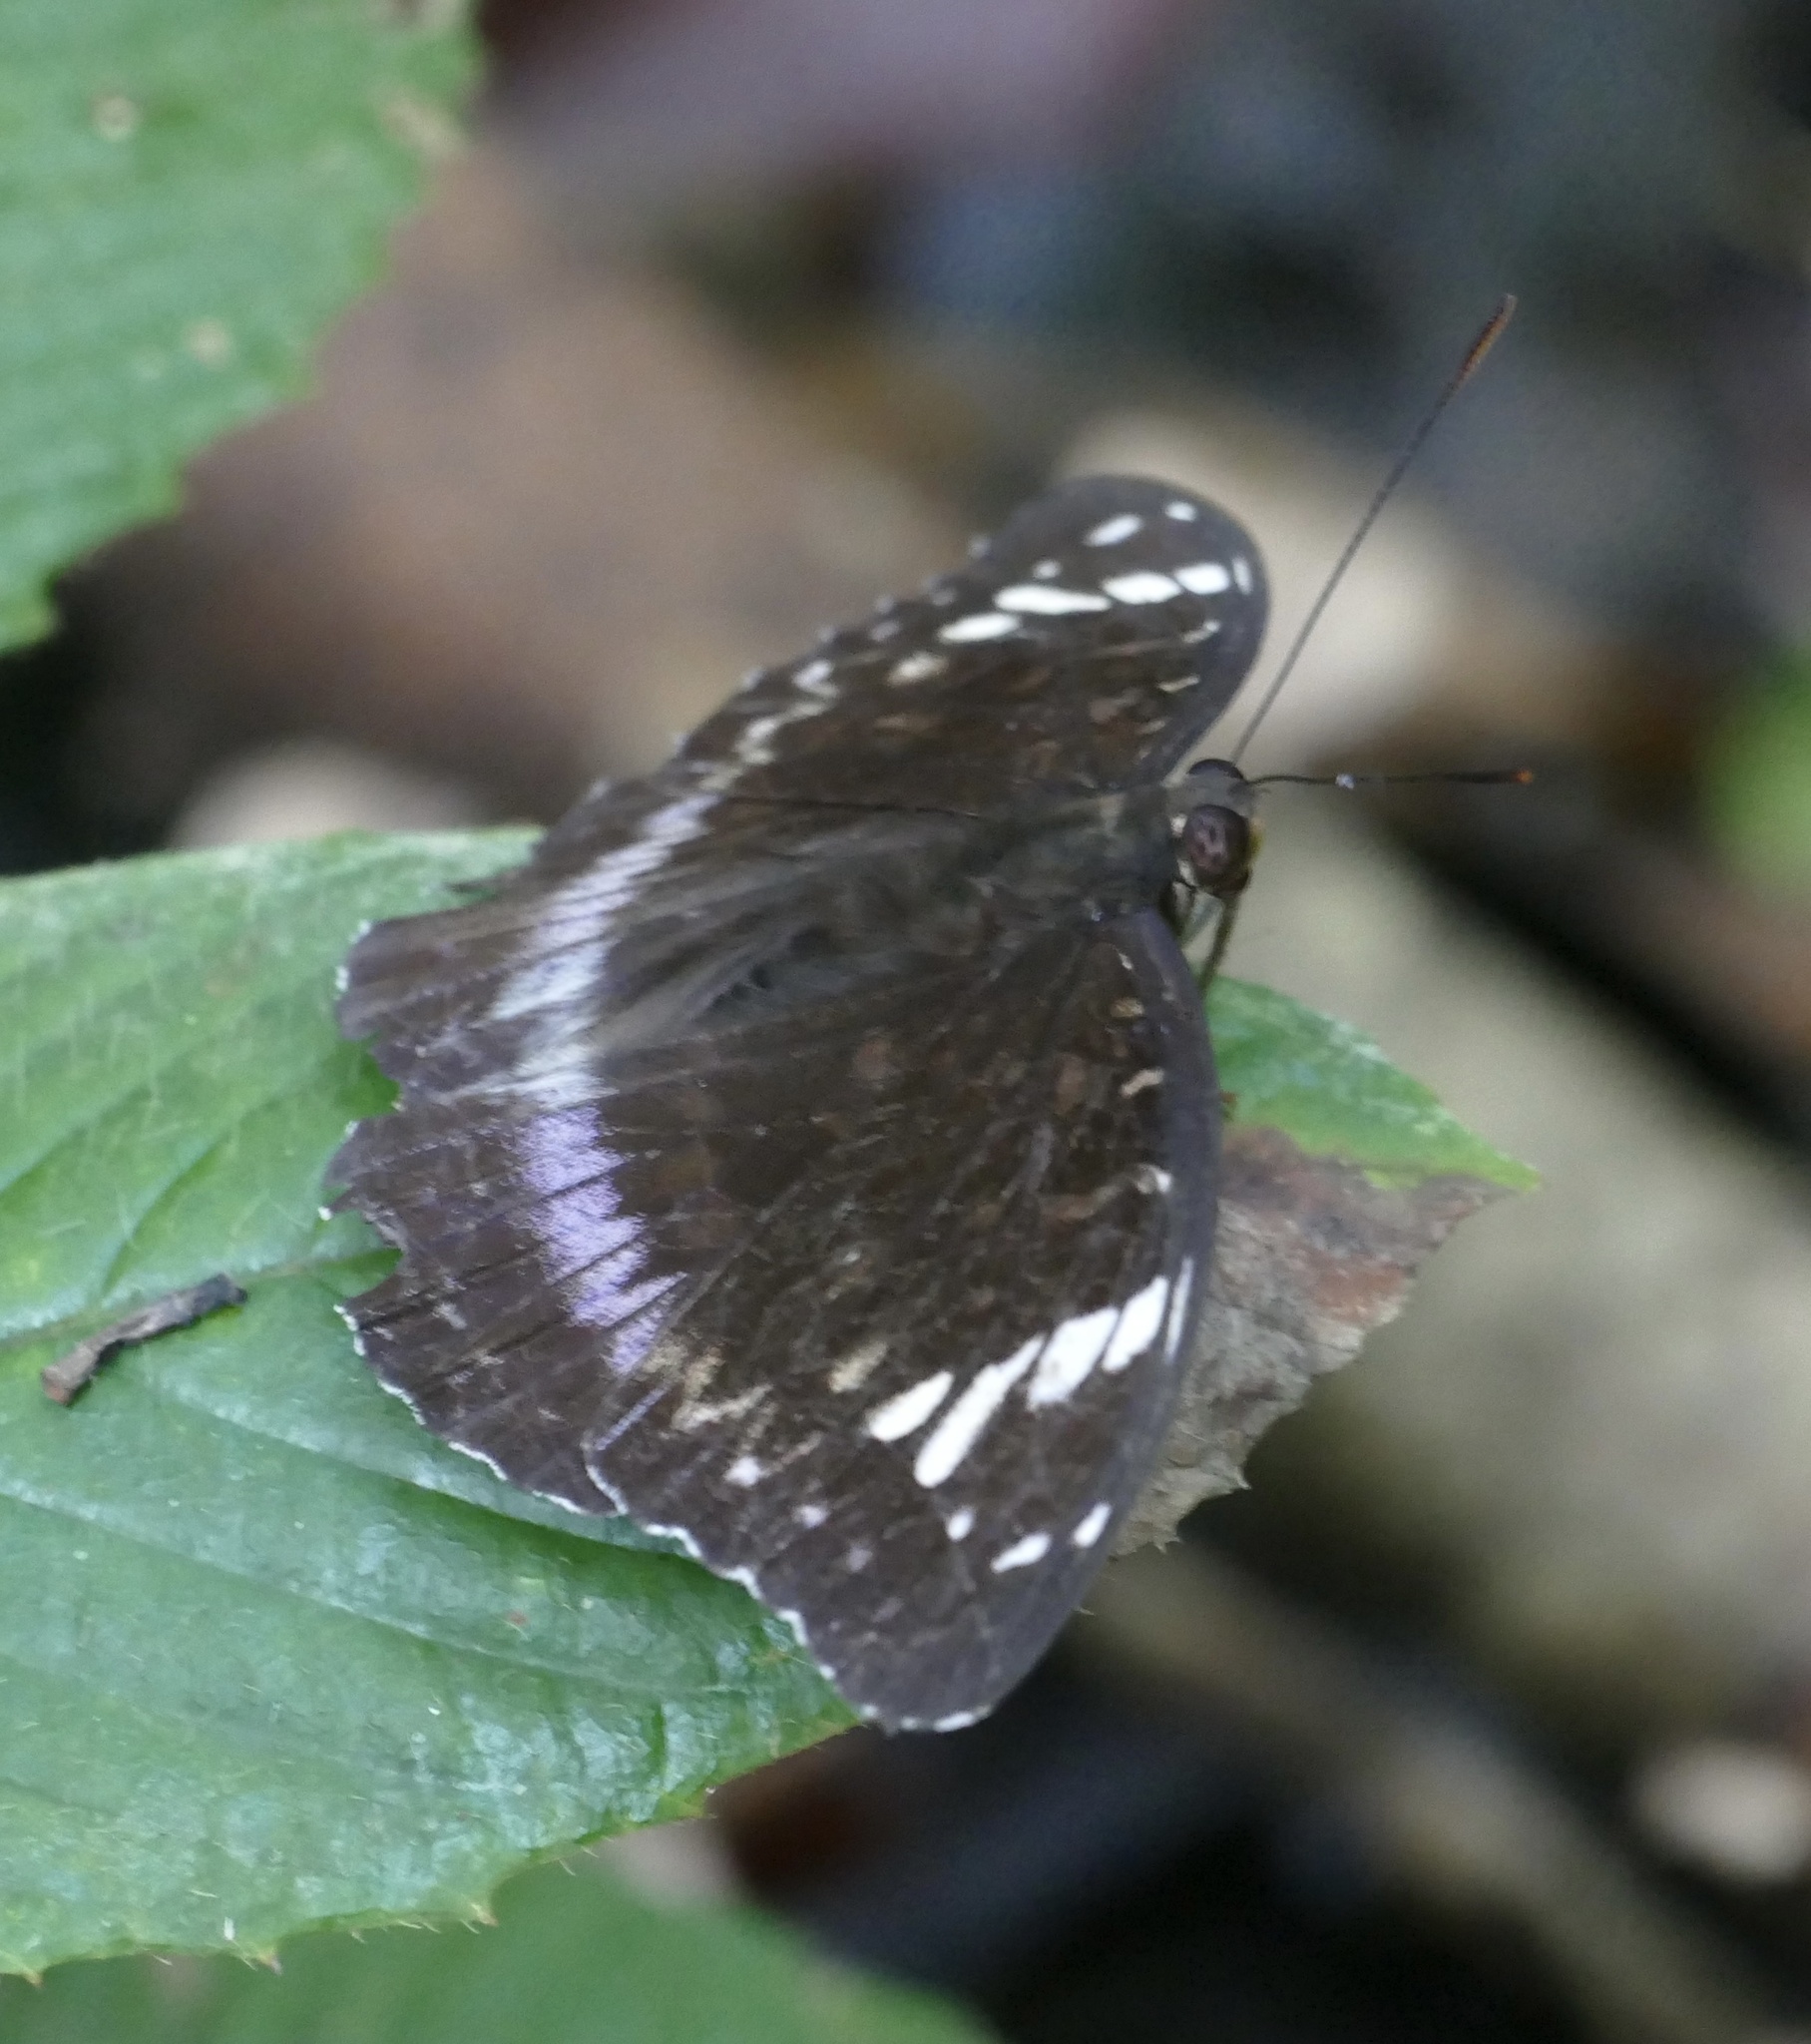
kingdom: Animalia
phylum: Arthropoda
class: Insecta
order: Lepidoptera
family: Nymphalidae
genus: Lexias
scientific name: Lexias aeetes
